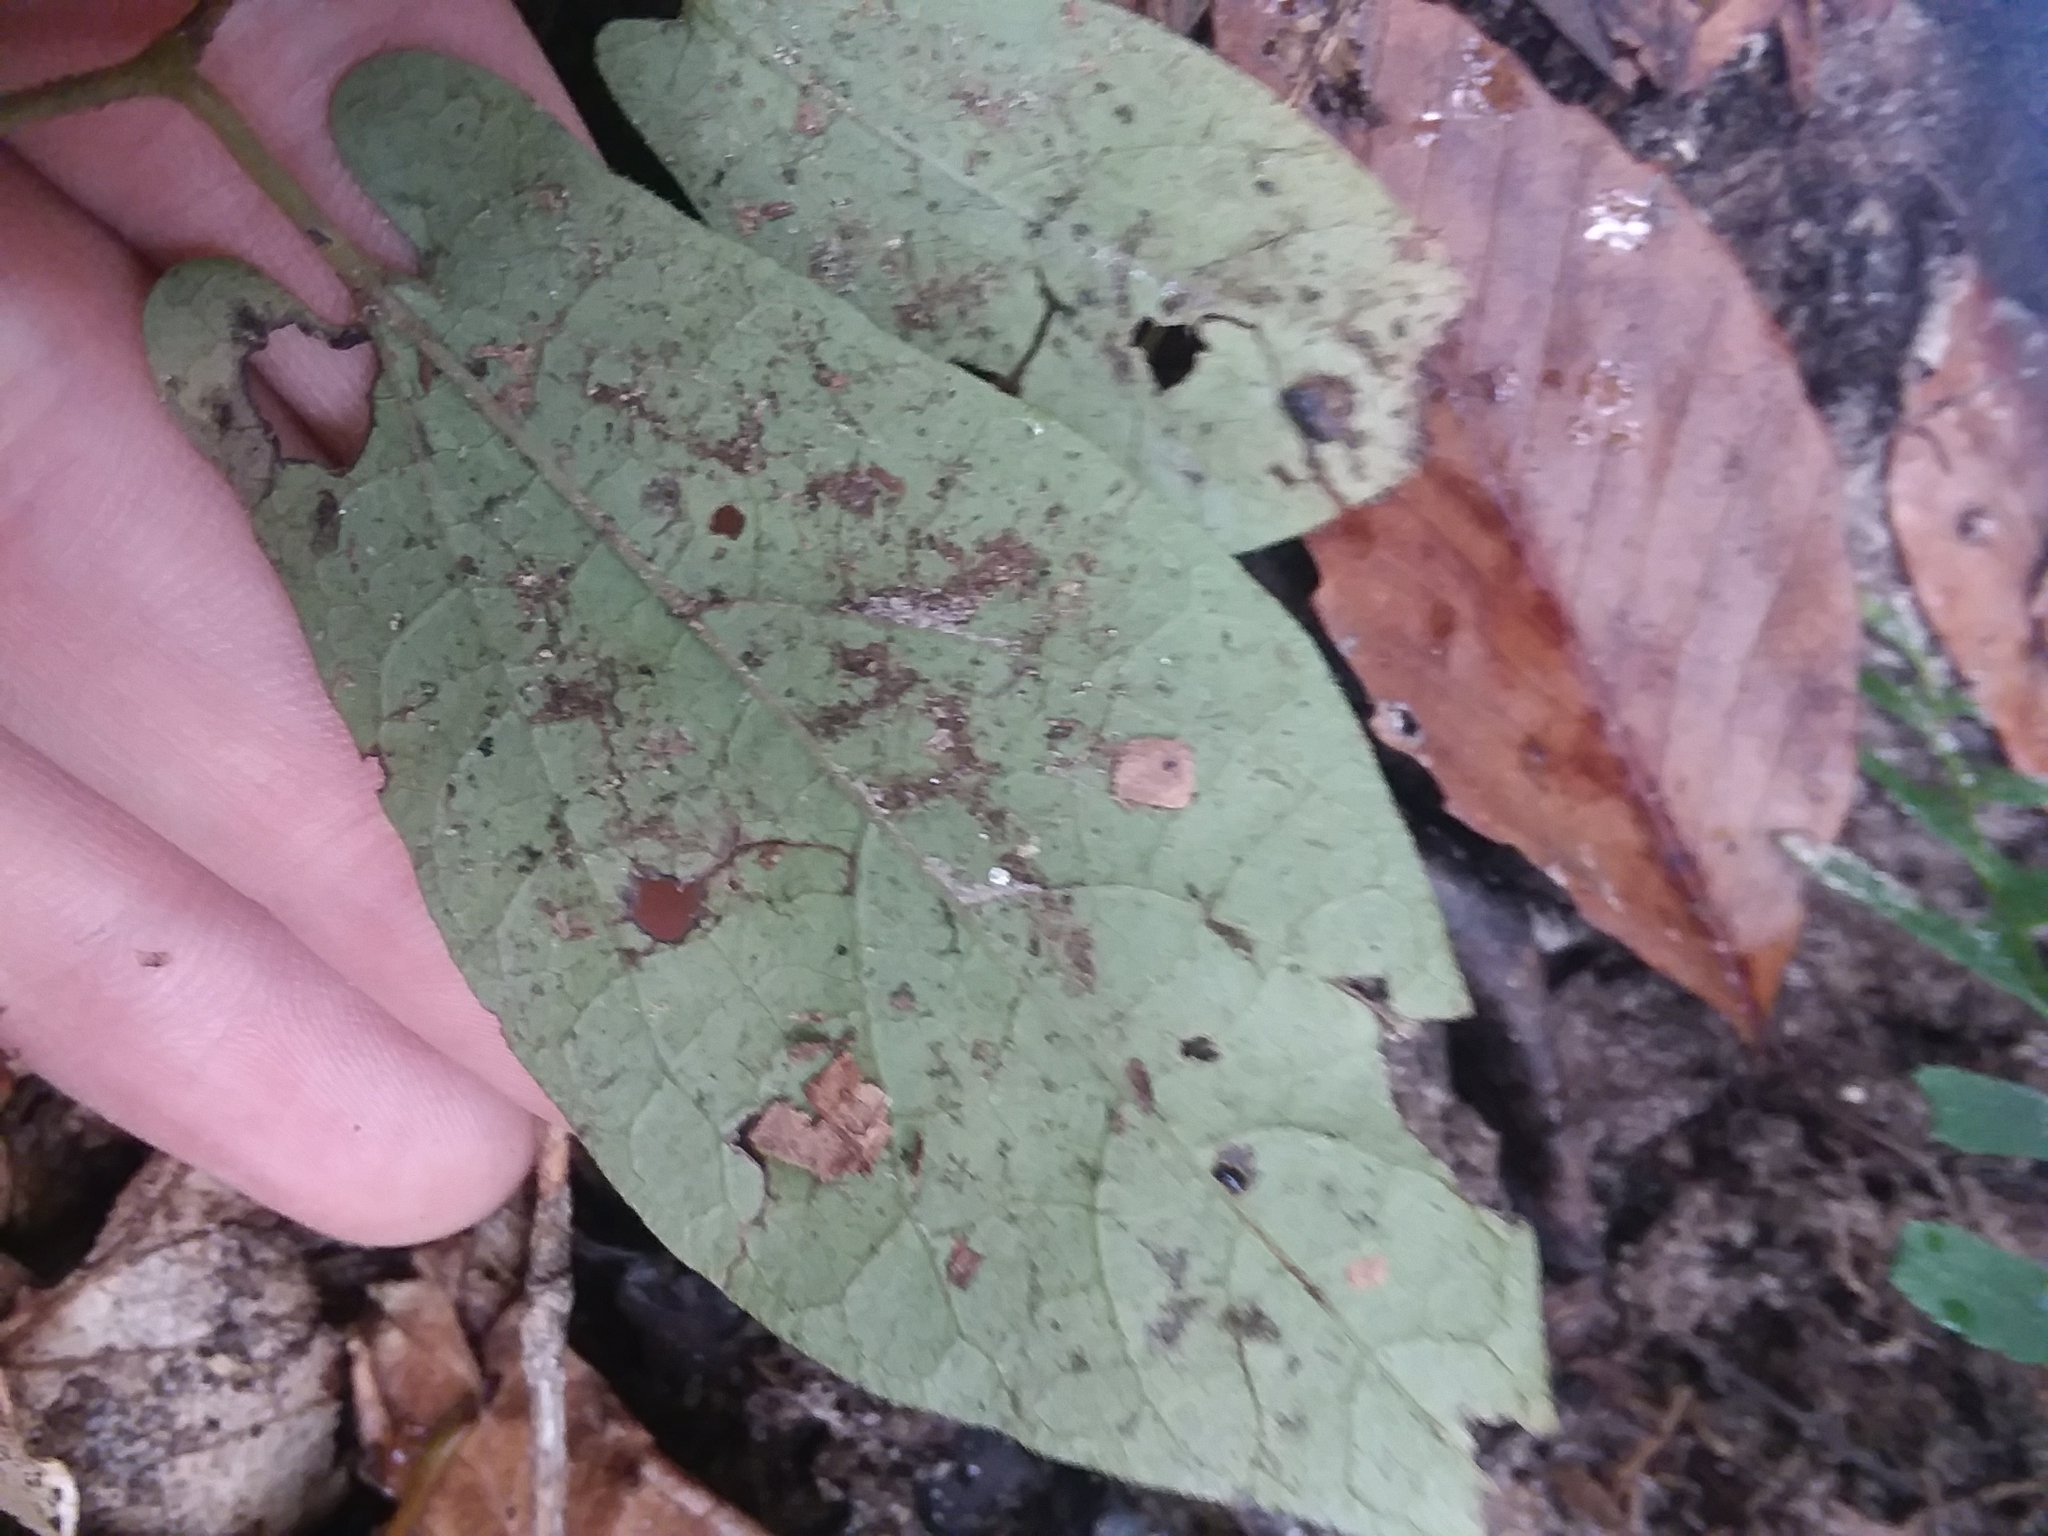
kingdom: Plantae
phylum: Tracheophyta
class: Magnoliopsida
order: Piperales
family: Aristolochiaceae
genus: Endodeca
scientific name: Endodeca serpentaria
